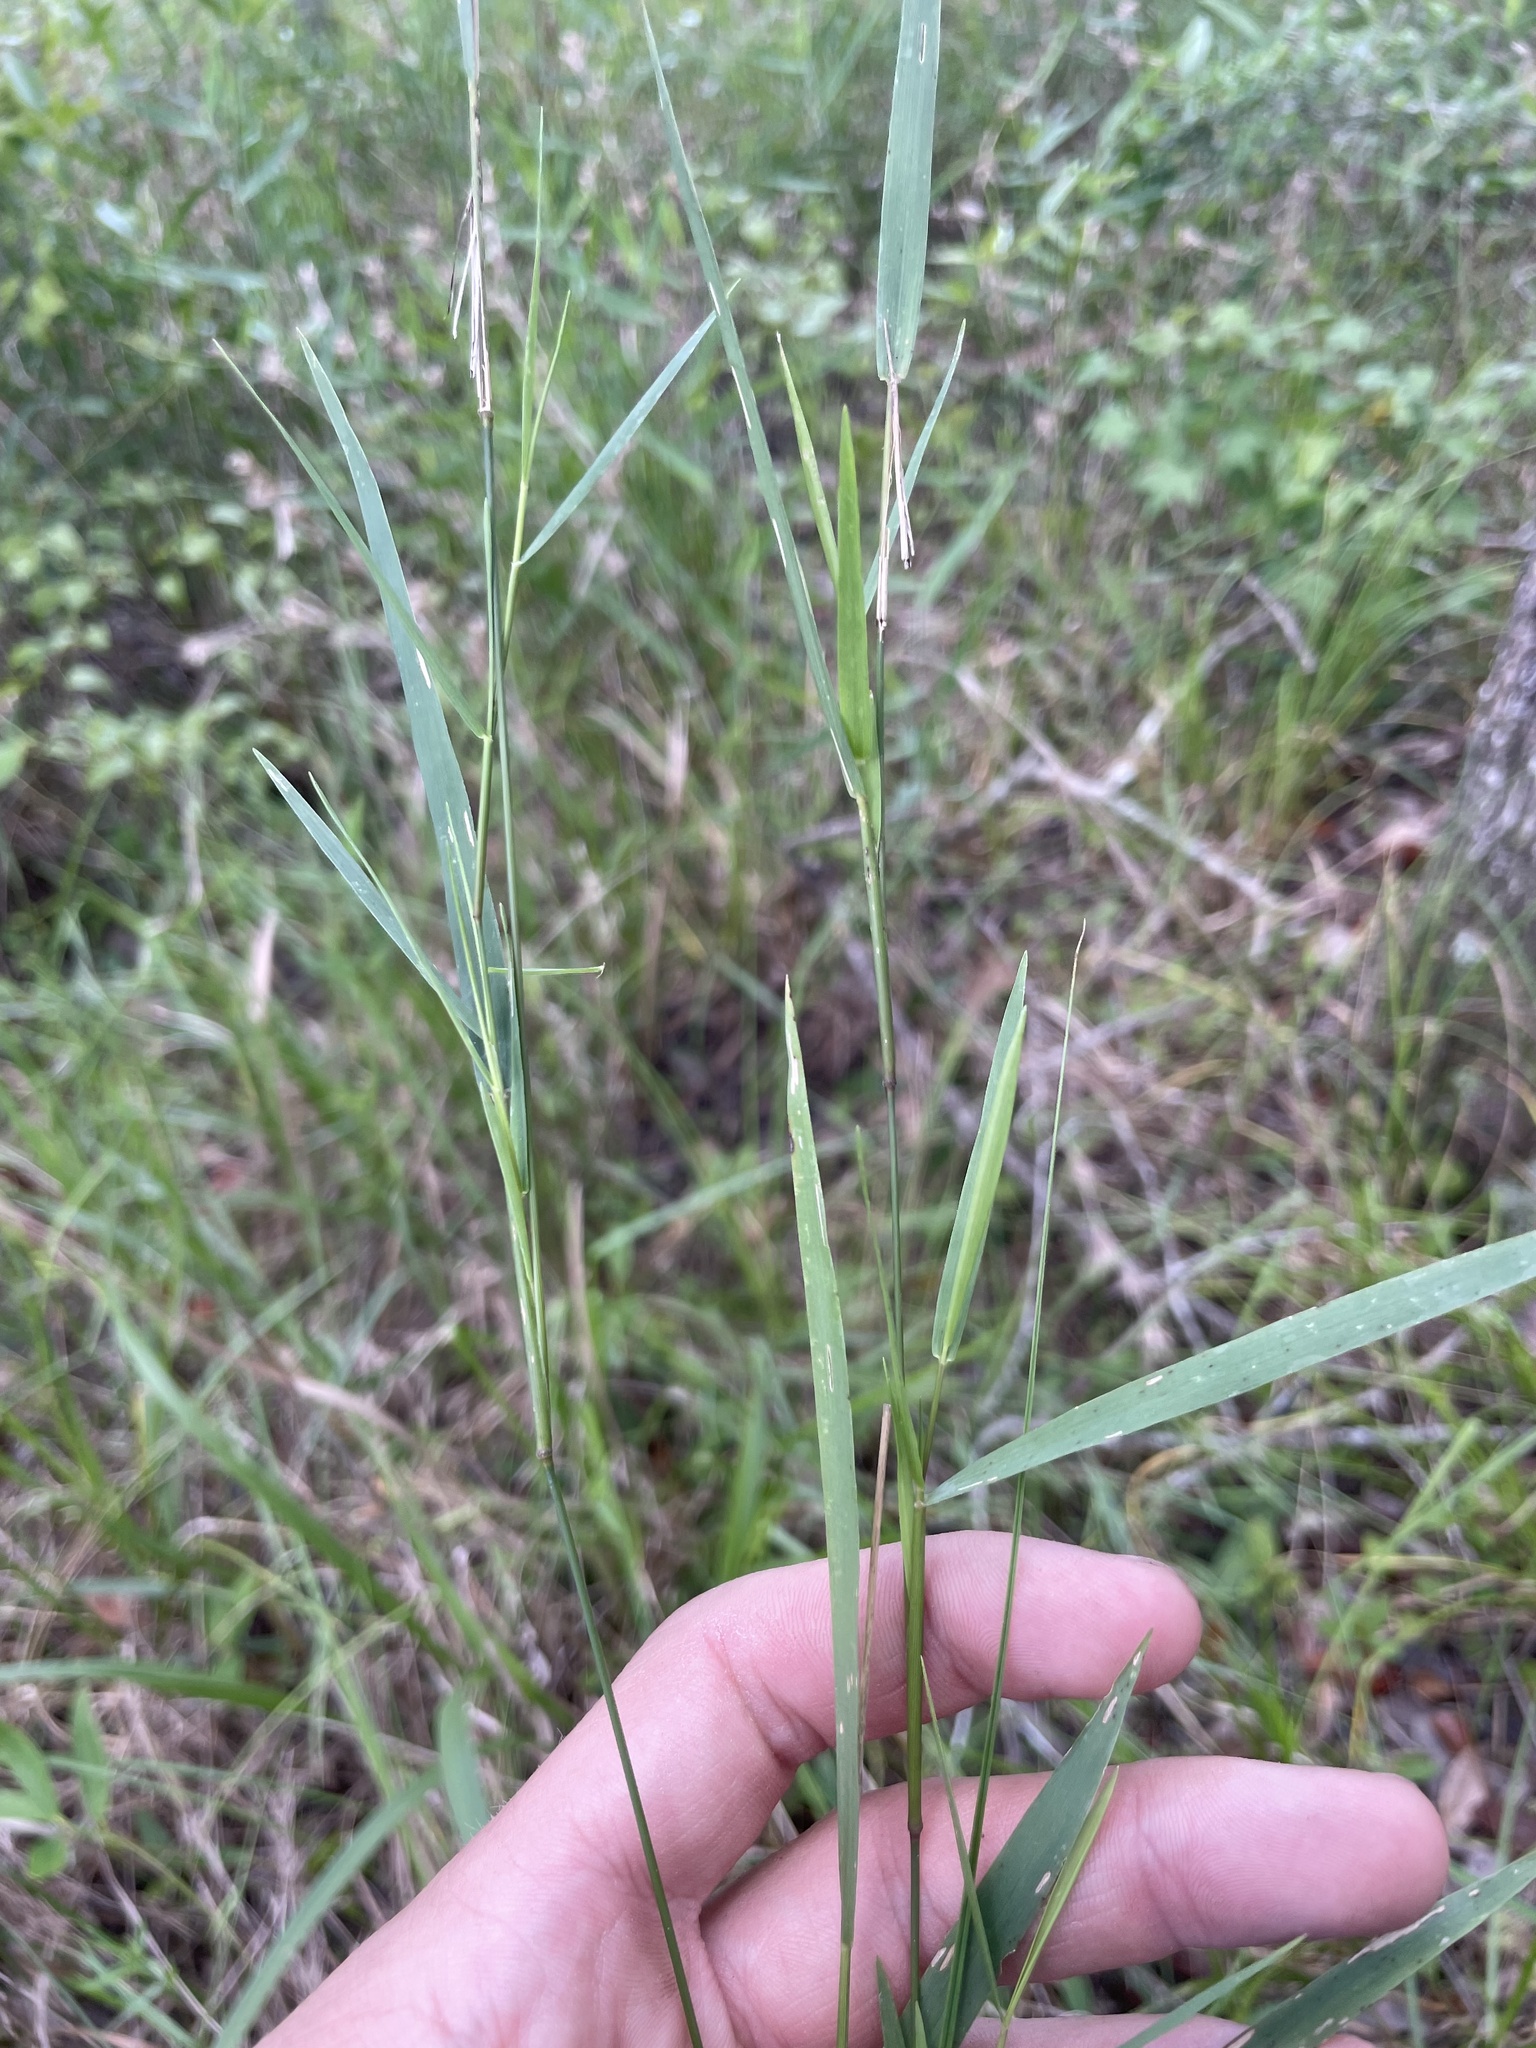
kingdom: Plantae
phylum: Tracheophyta
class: Liliopsida
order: Poales
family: Poaceae
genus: Dichanthelium
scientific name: Dichanthelium roanokense
